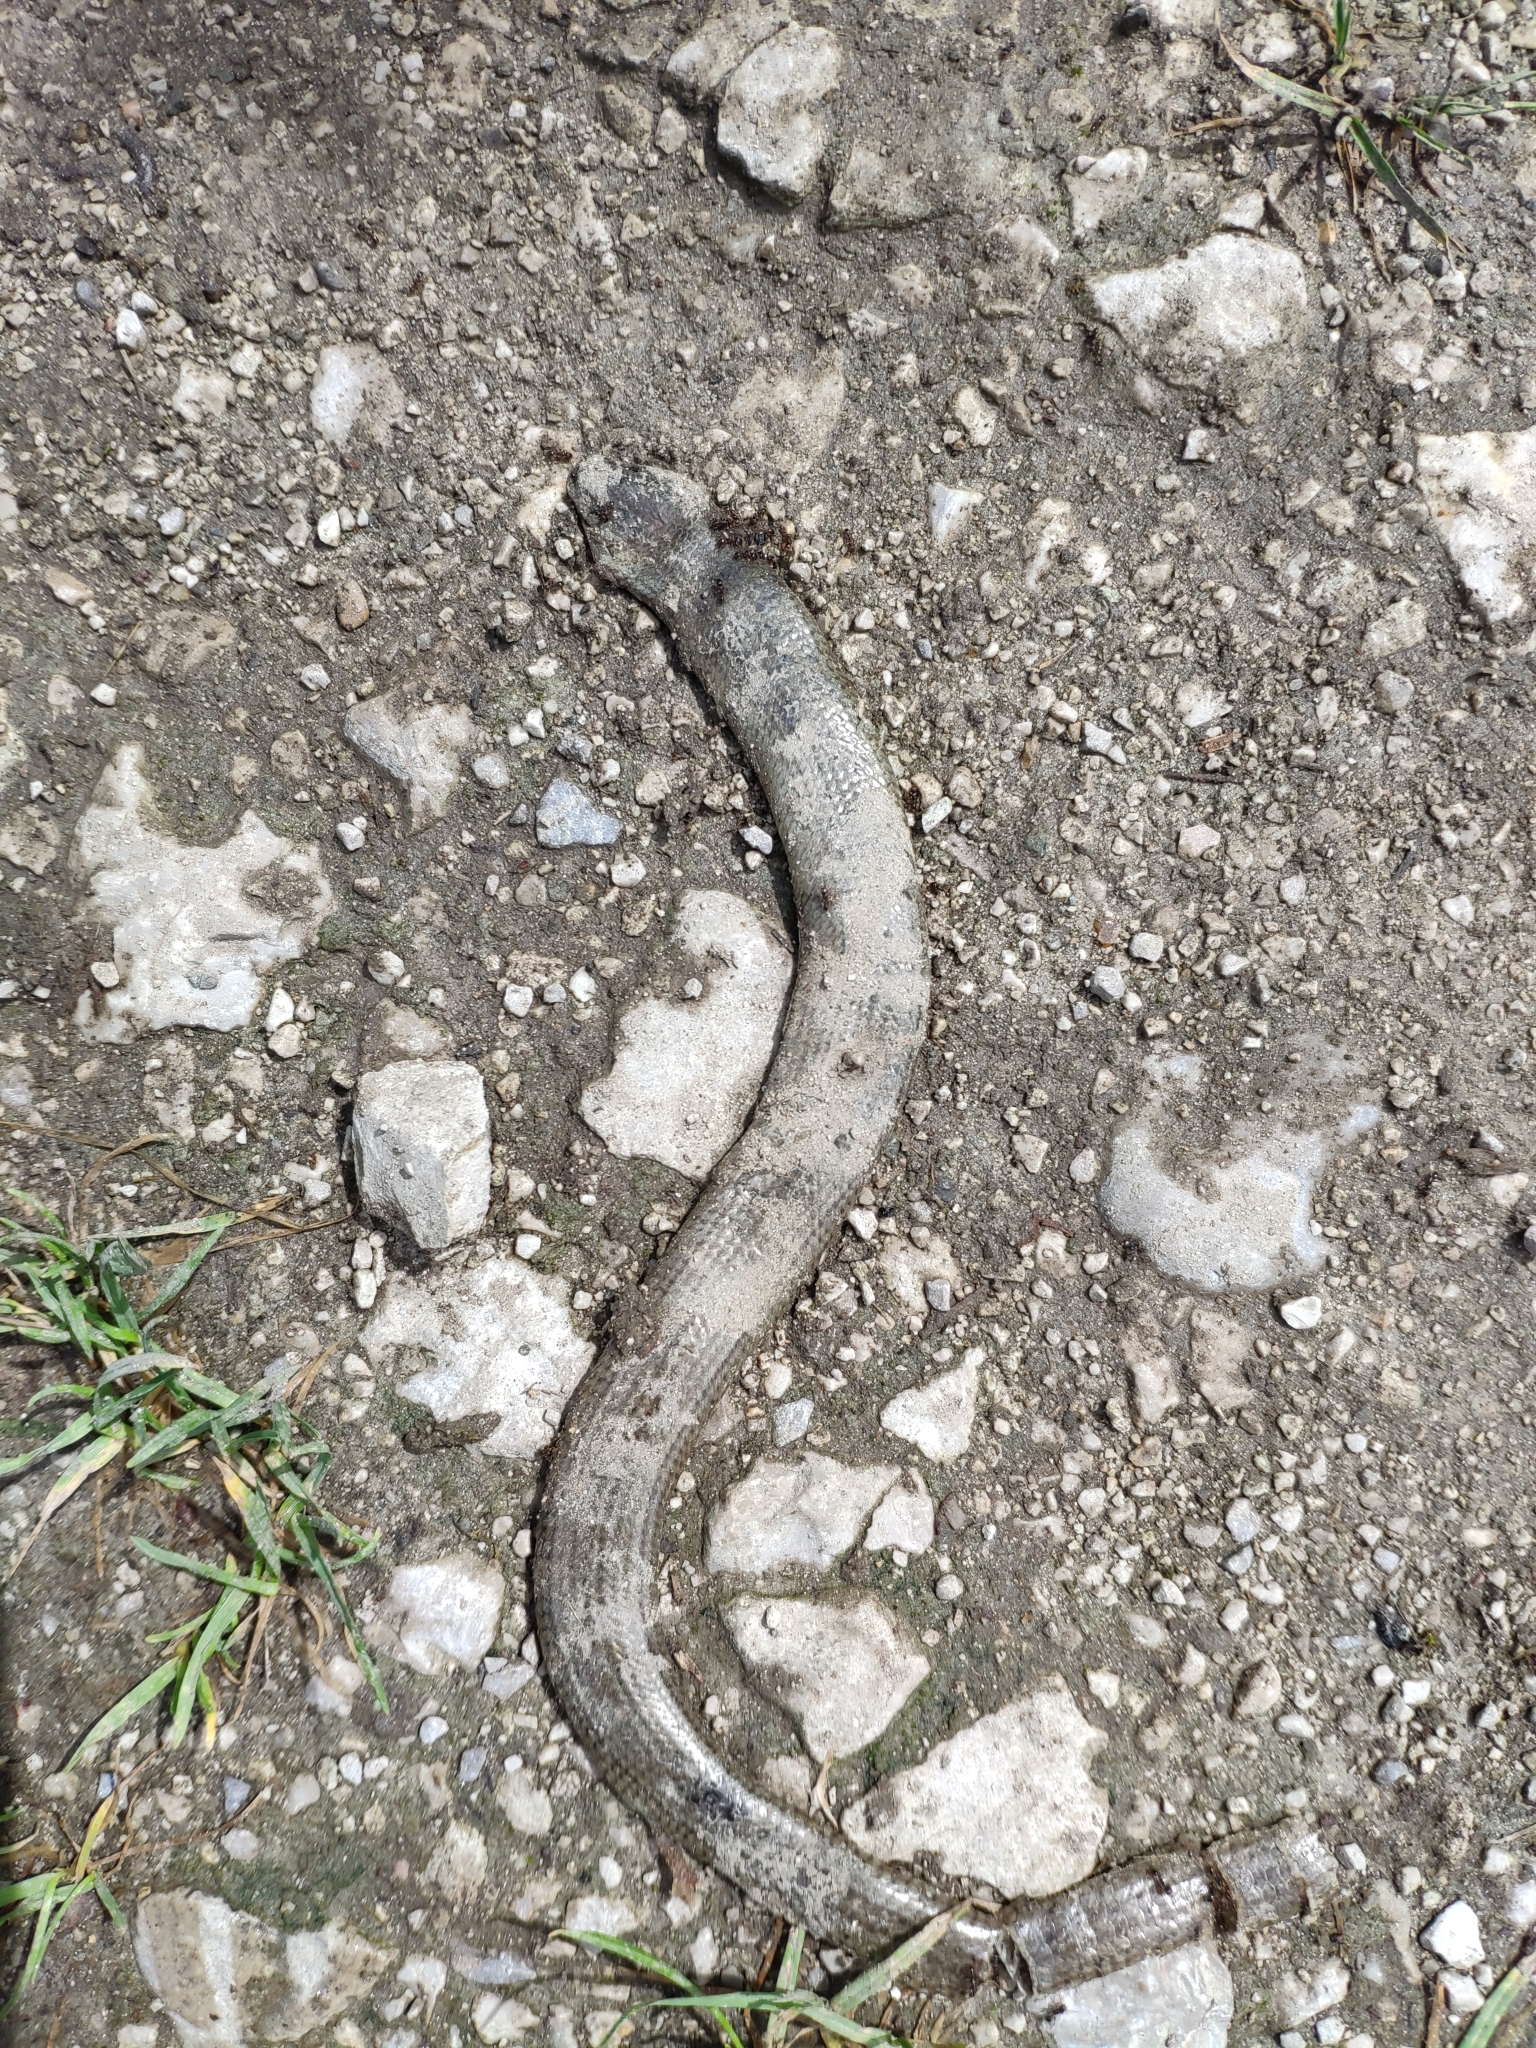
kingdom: Animalia
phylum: Chordata
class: Squamata
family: Anguidae
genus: Anguis
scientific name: Anguis veronensis
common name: Italian slow worm
